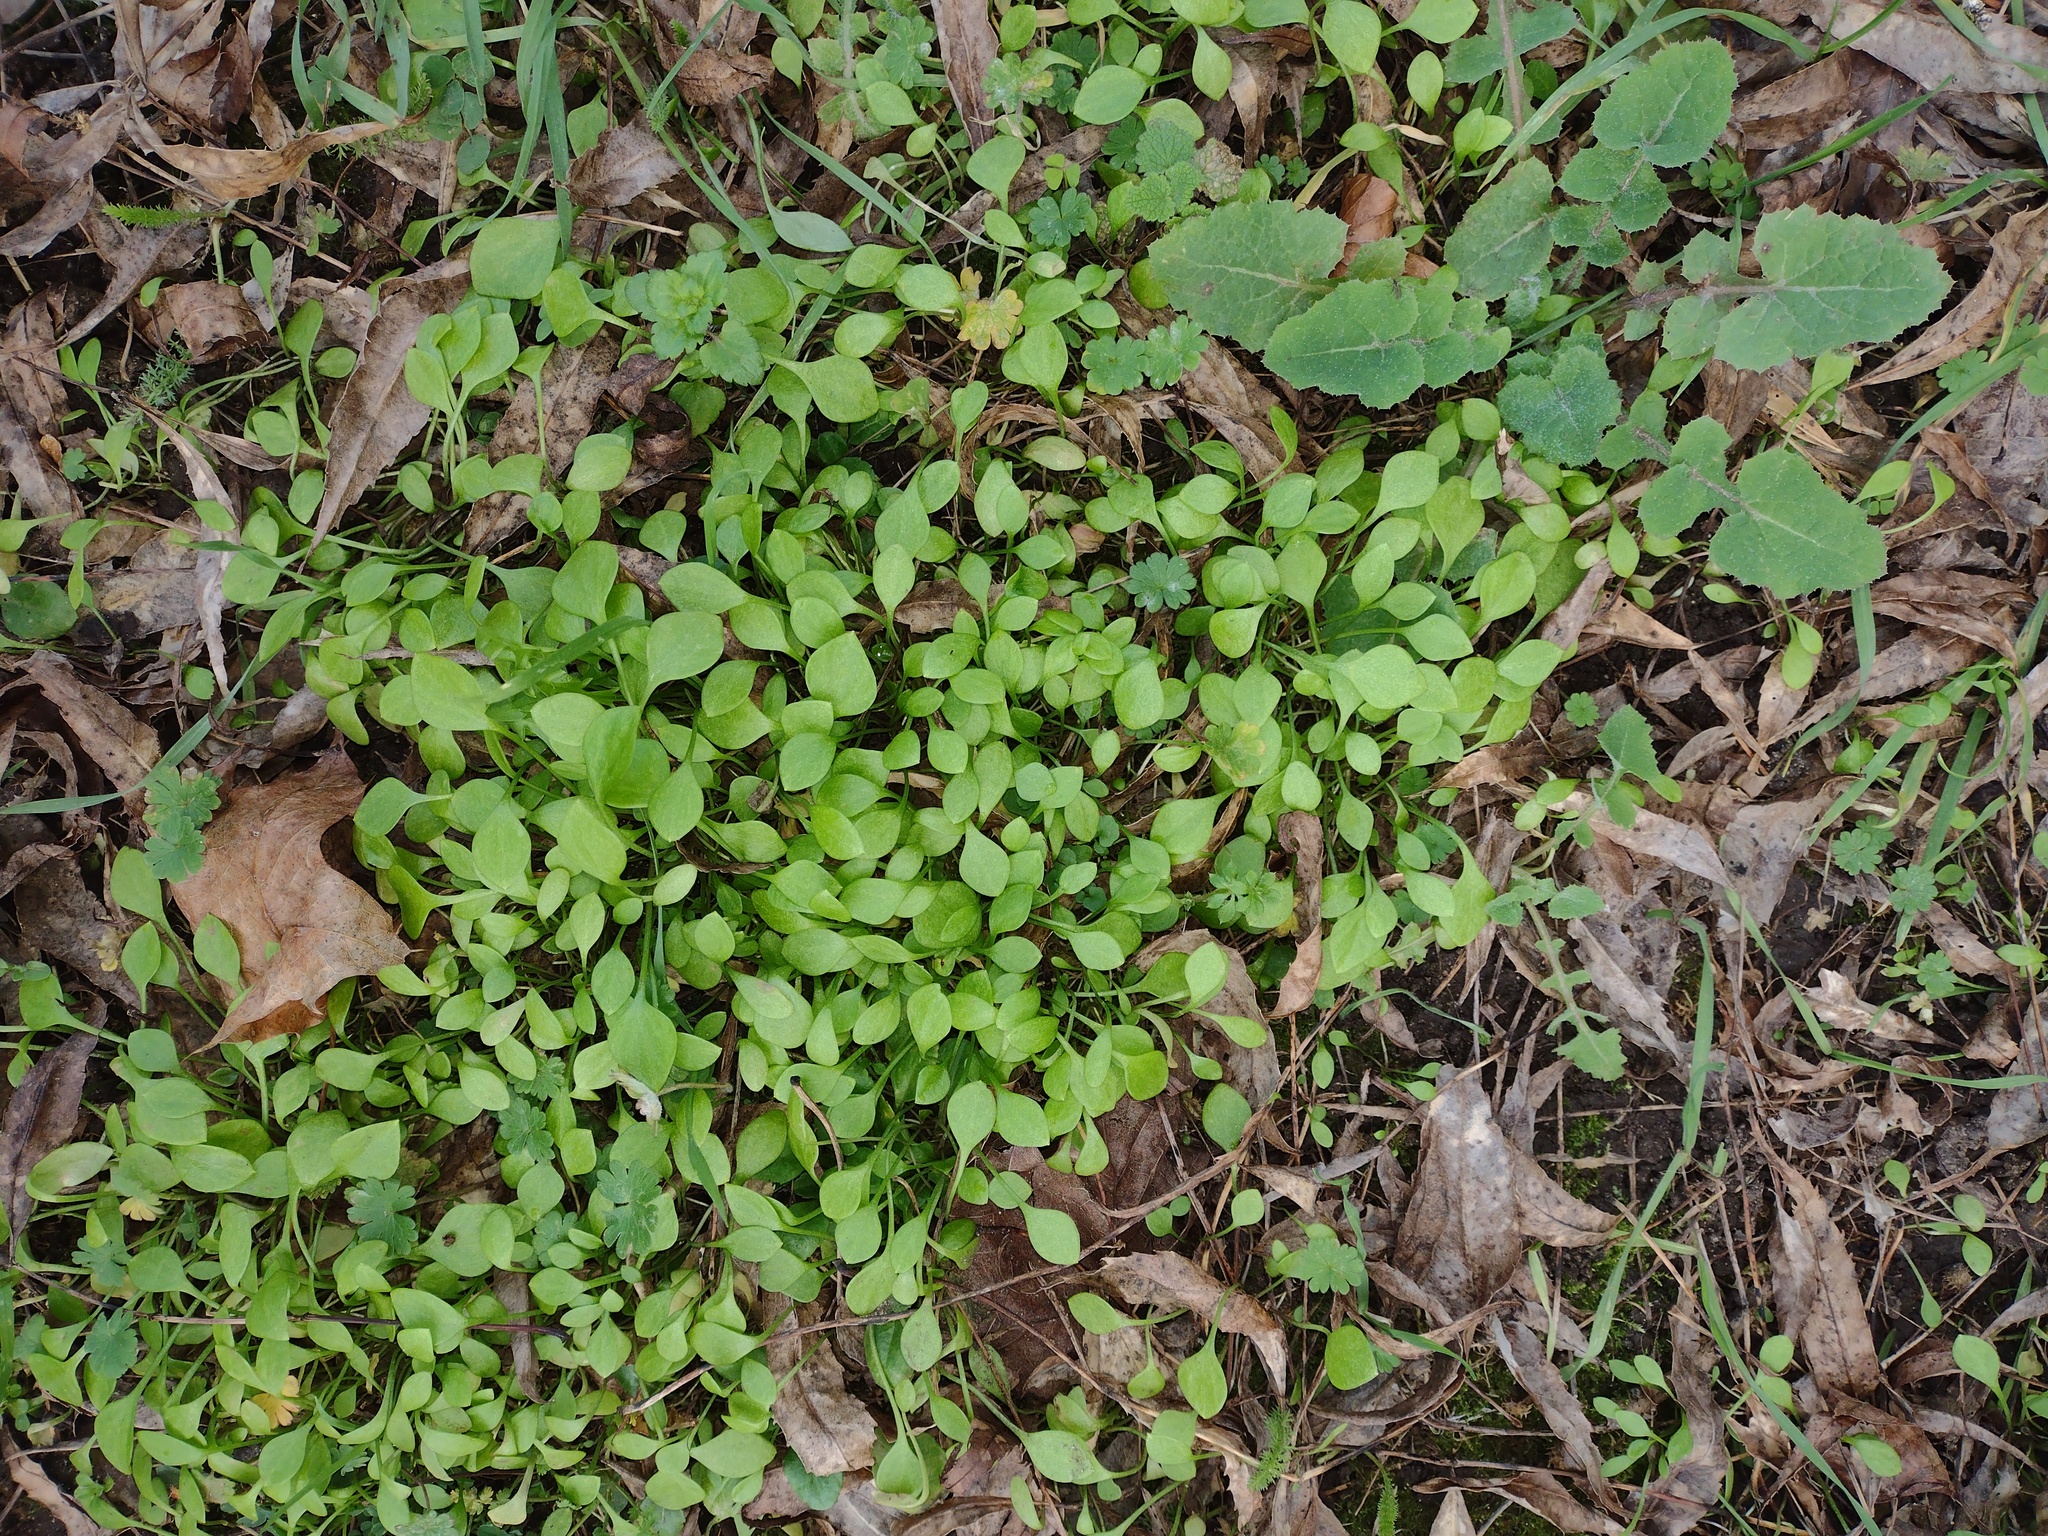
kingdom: Plantae
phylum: Tracheophyta
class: Magnoliopsida
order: Caryophyllales
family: Montiaceae
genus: Claytonia
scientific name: Claytonia perfoliata
